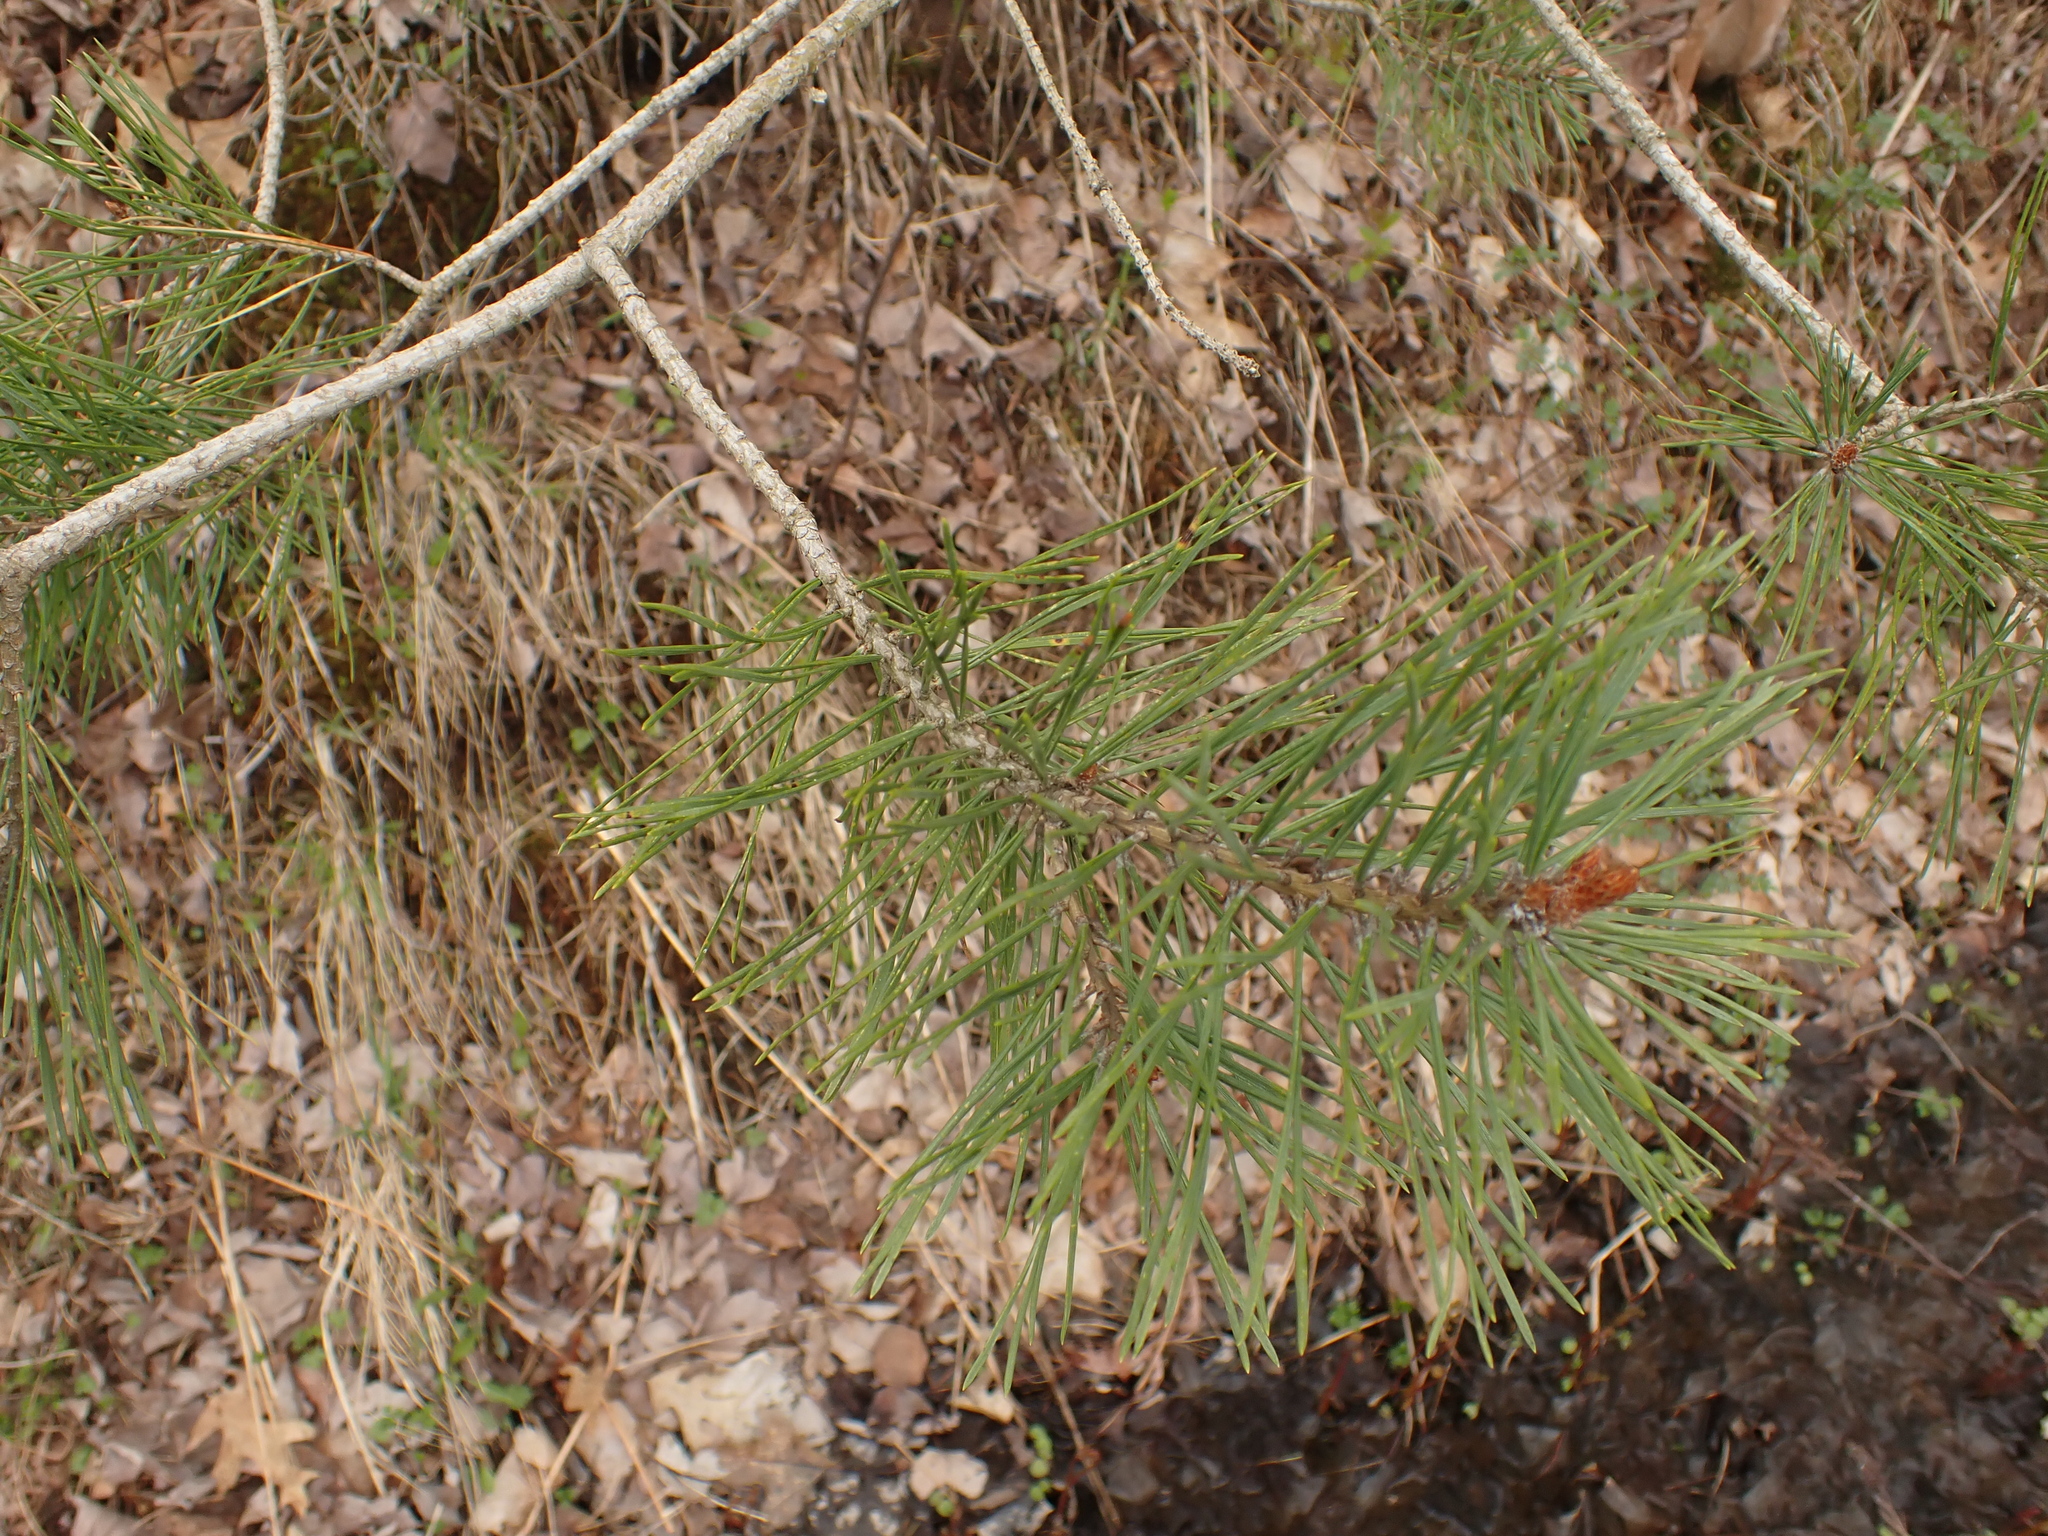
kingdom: Plantae
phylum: Tracheophyta
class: Pinopsida
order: Pinales
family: Pinaceae
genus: Pinus
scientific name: Pinus sylvestris
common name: Scots pine
